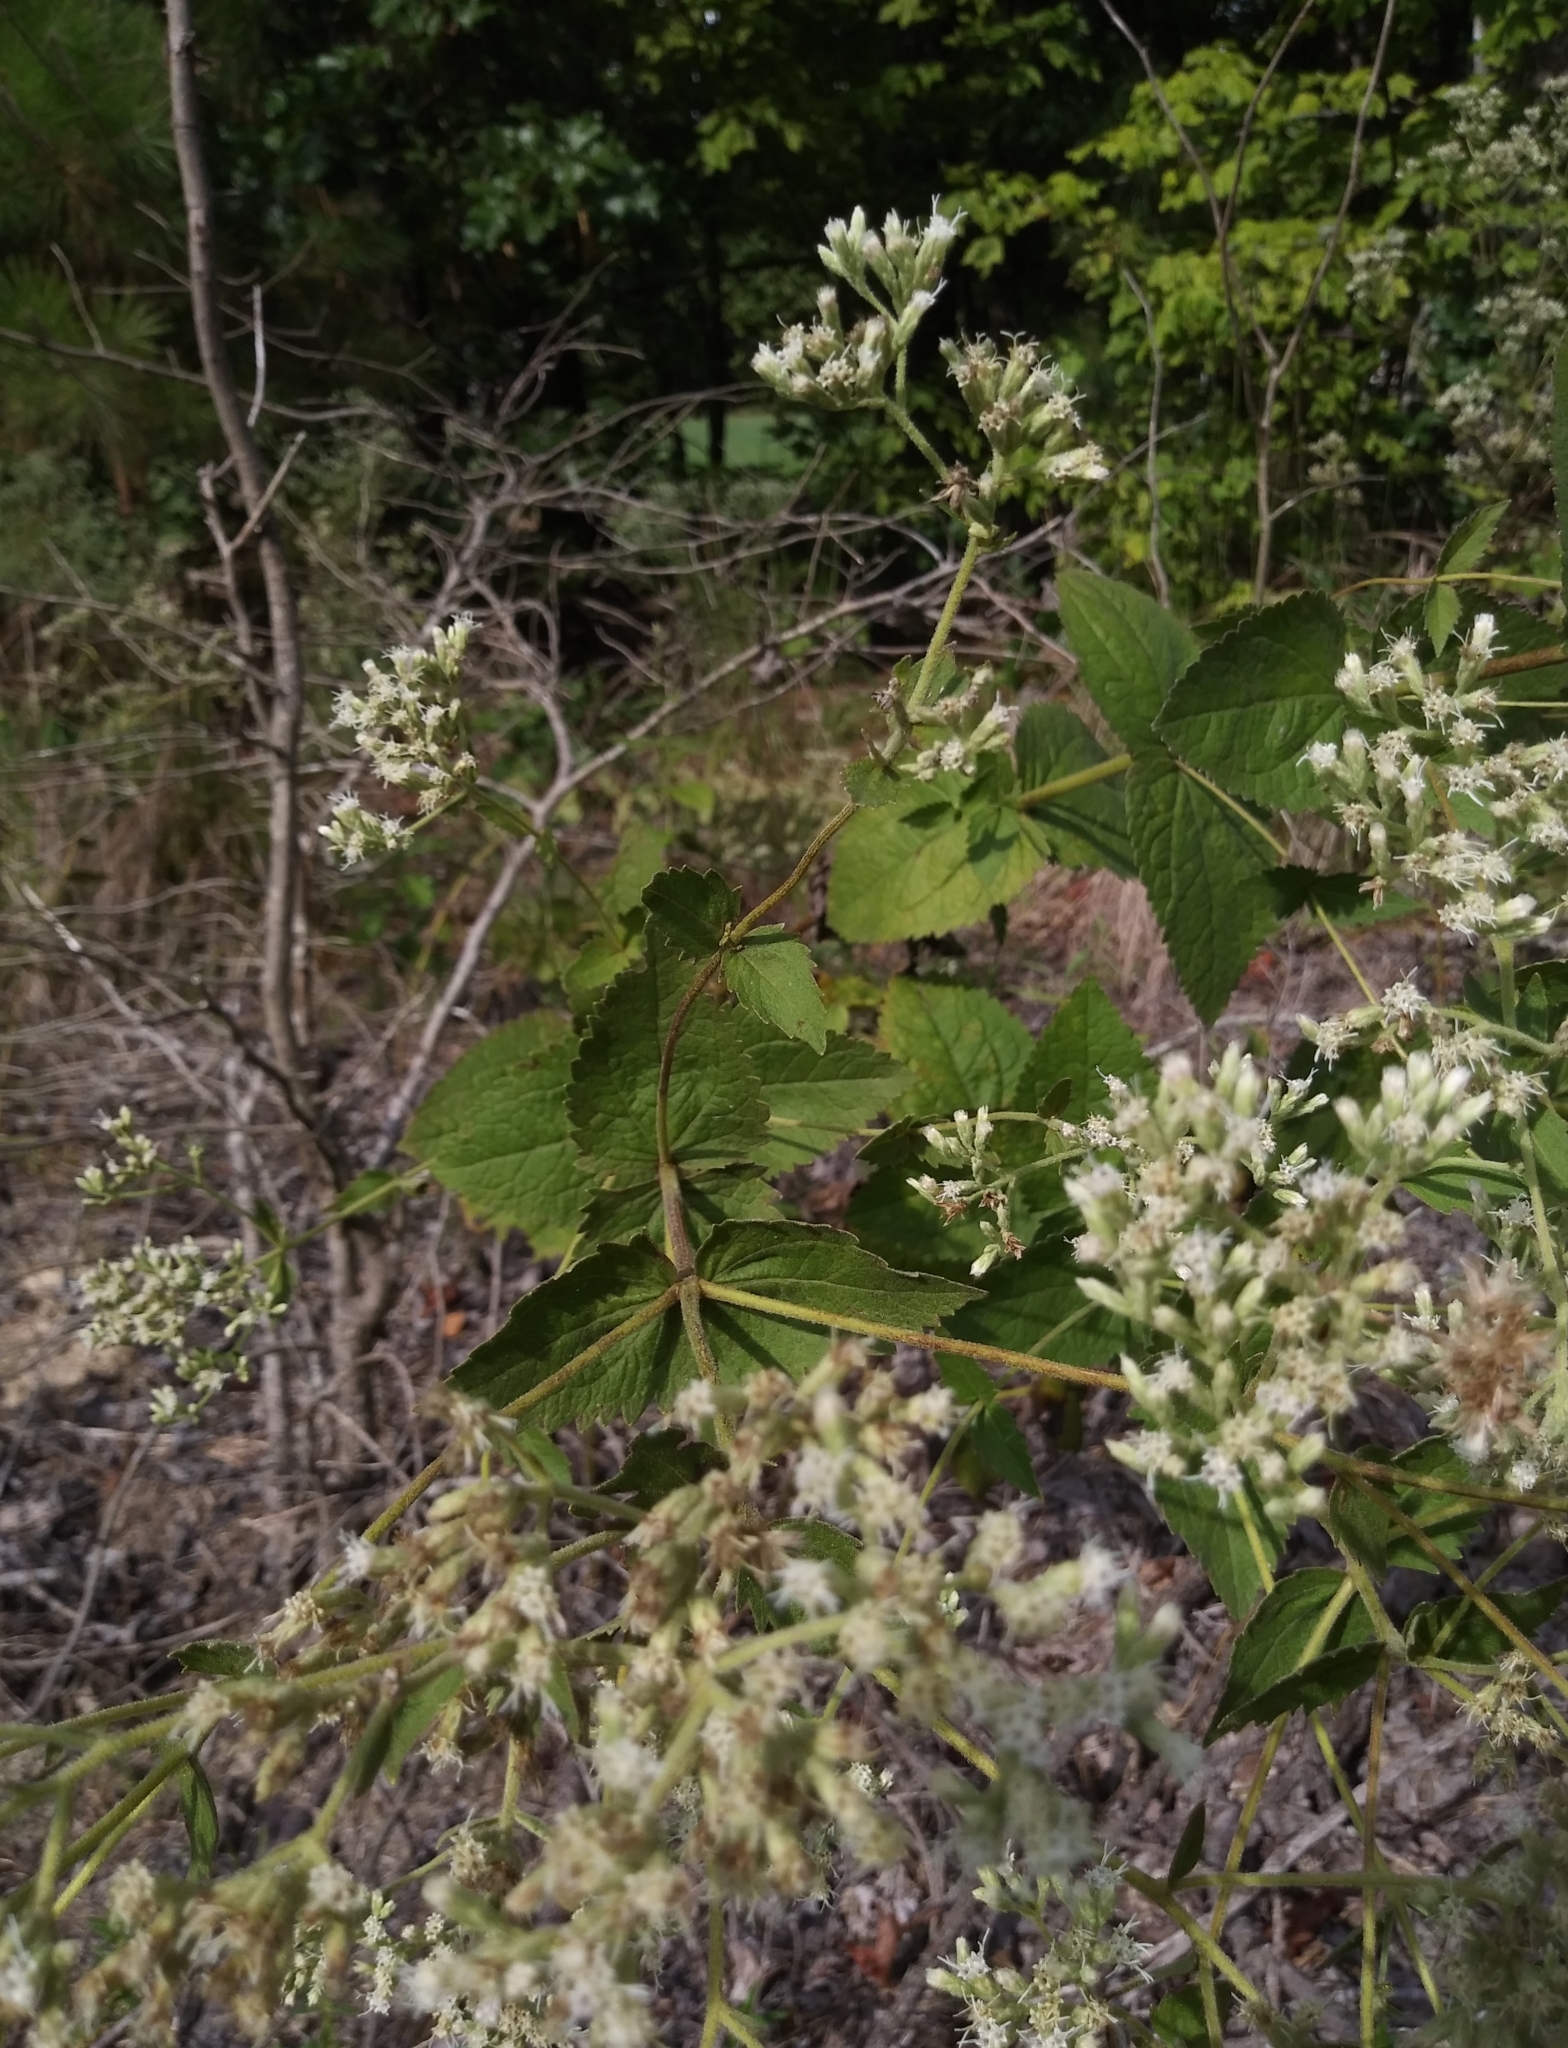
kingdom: Plantae
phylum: Tracheophyta
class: Magnoliopsida
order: Asterales
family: Asteraceae
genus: Eupatorium
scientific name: Eupatorium rotundifolium
